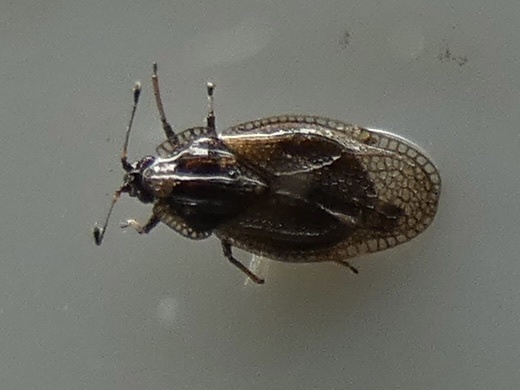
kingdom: Animalia
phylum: Arthropoda
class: Insecta
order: Hemiptera
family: Tingidae
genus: Acalypta
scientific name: Acalypta parvula
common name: Lace bug
